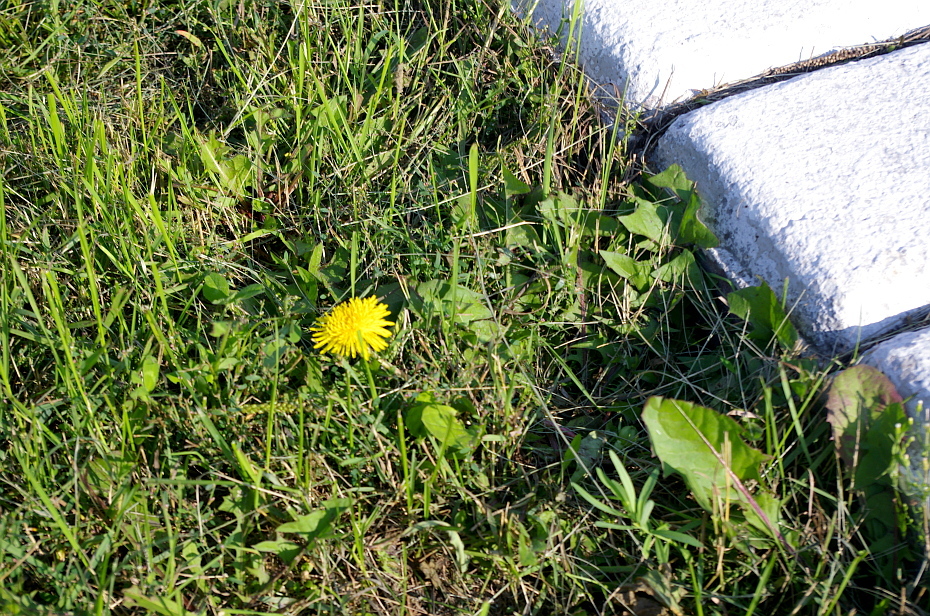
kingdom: Plantae
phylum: Tracheophyta
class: Magnoliopsida
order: Asterales
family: Asteraceae
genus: Taraxacum
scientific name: Taraxacum officinale
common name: Common dandelion
